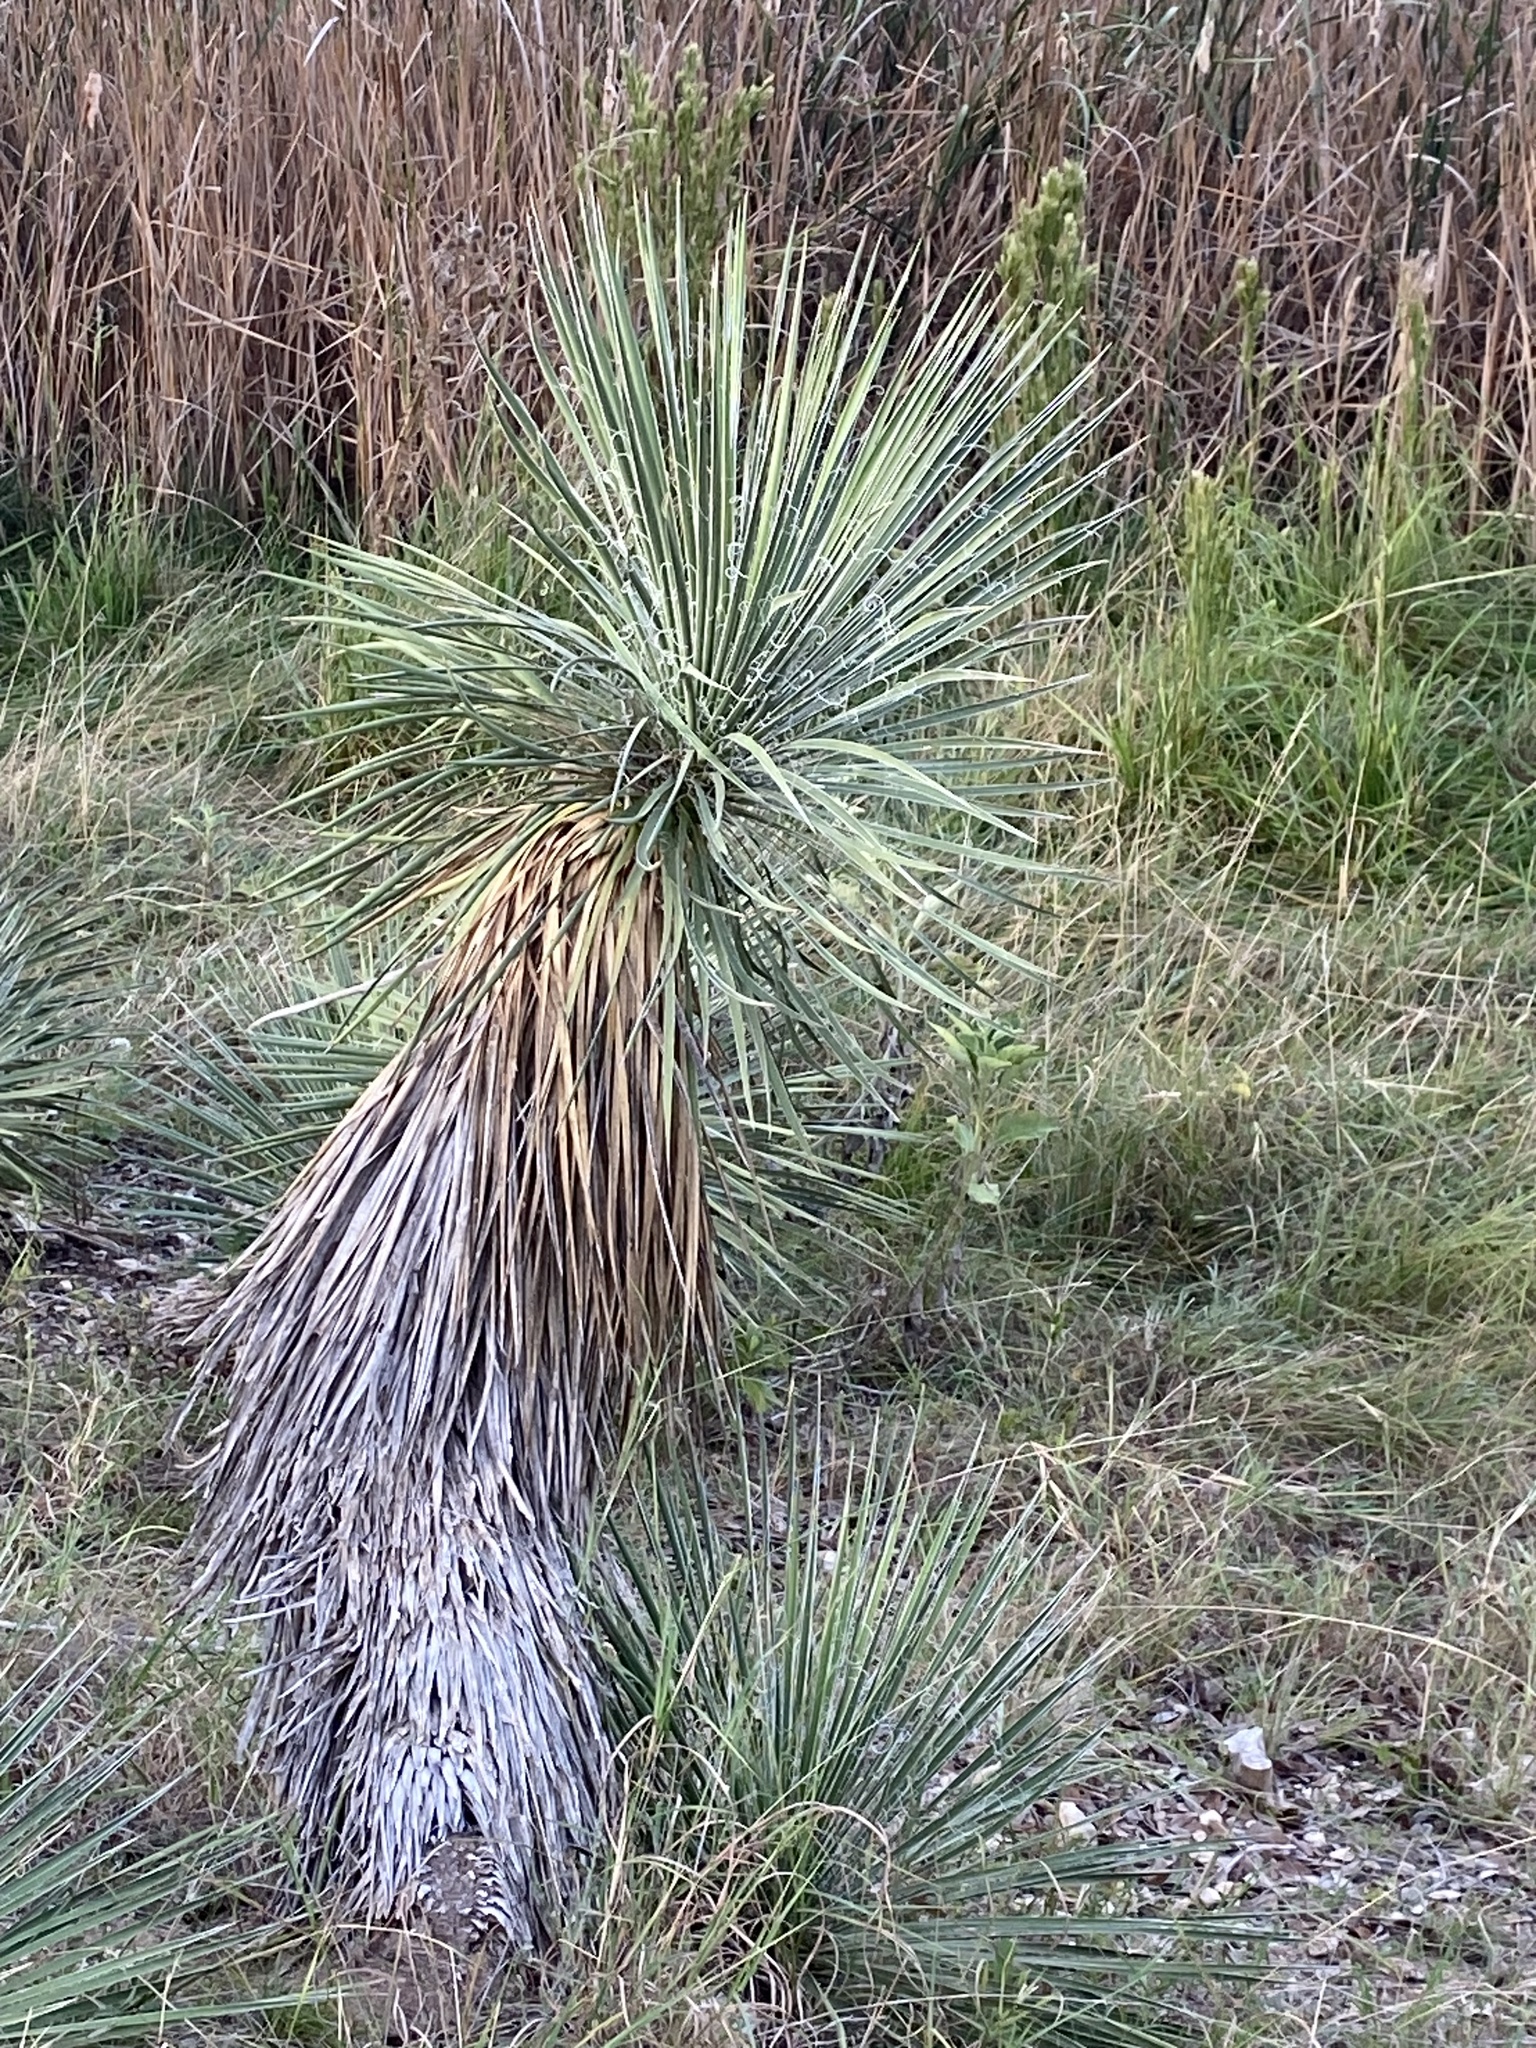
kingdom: Plantae
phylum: Tracheophyta
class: Liliopsida
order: Asparagales
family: Asparagaceae
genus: Yucca
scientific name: Yucca constricta
